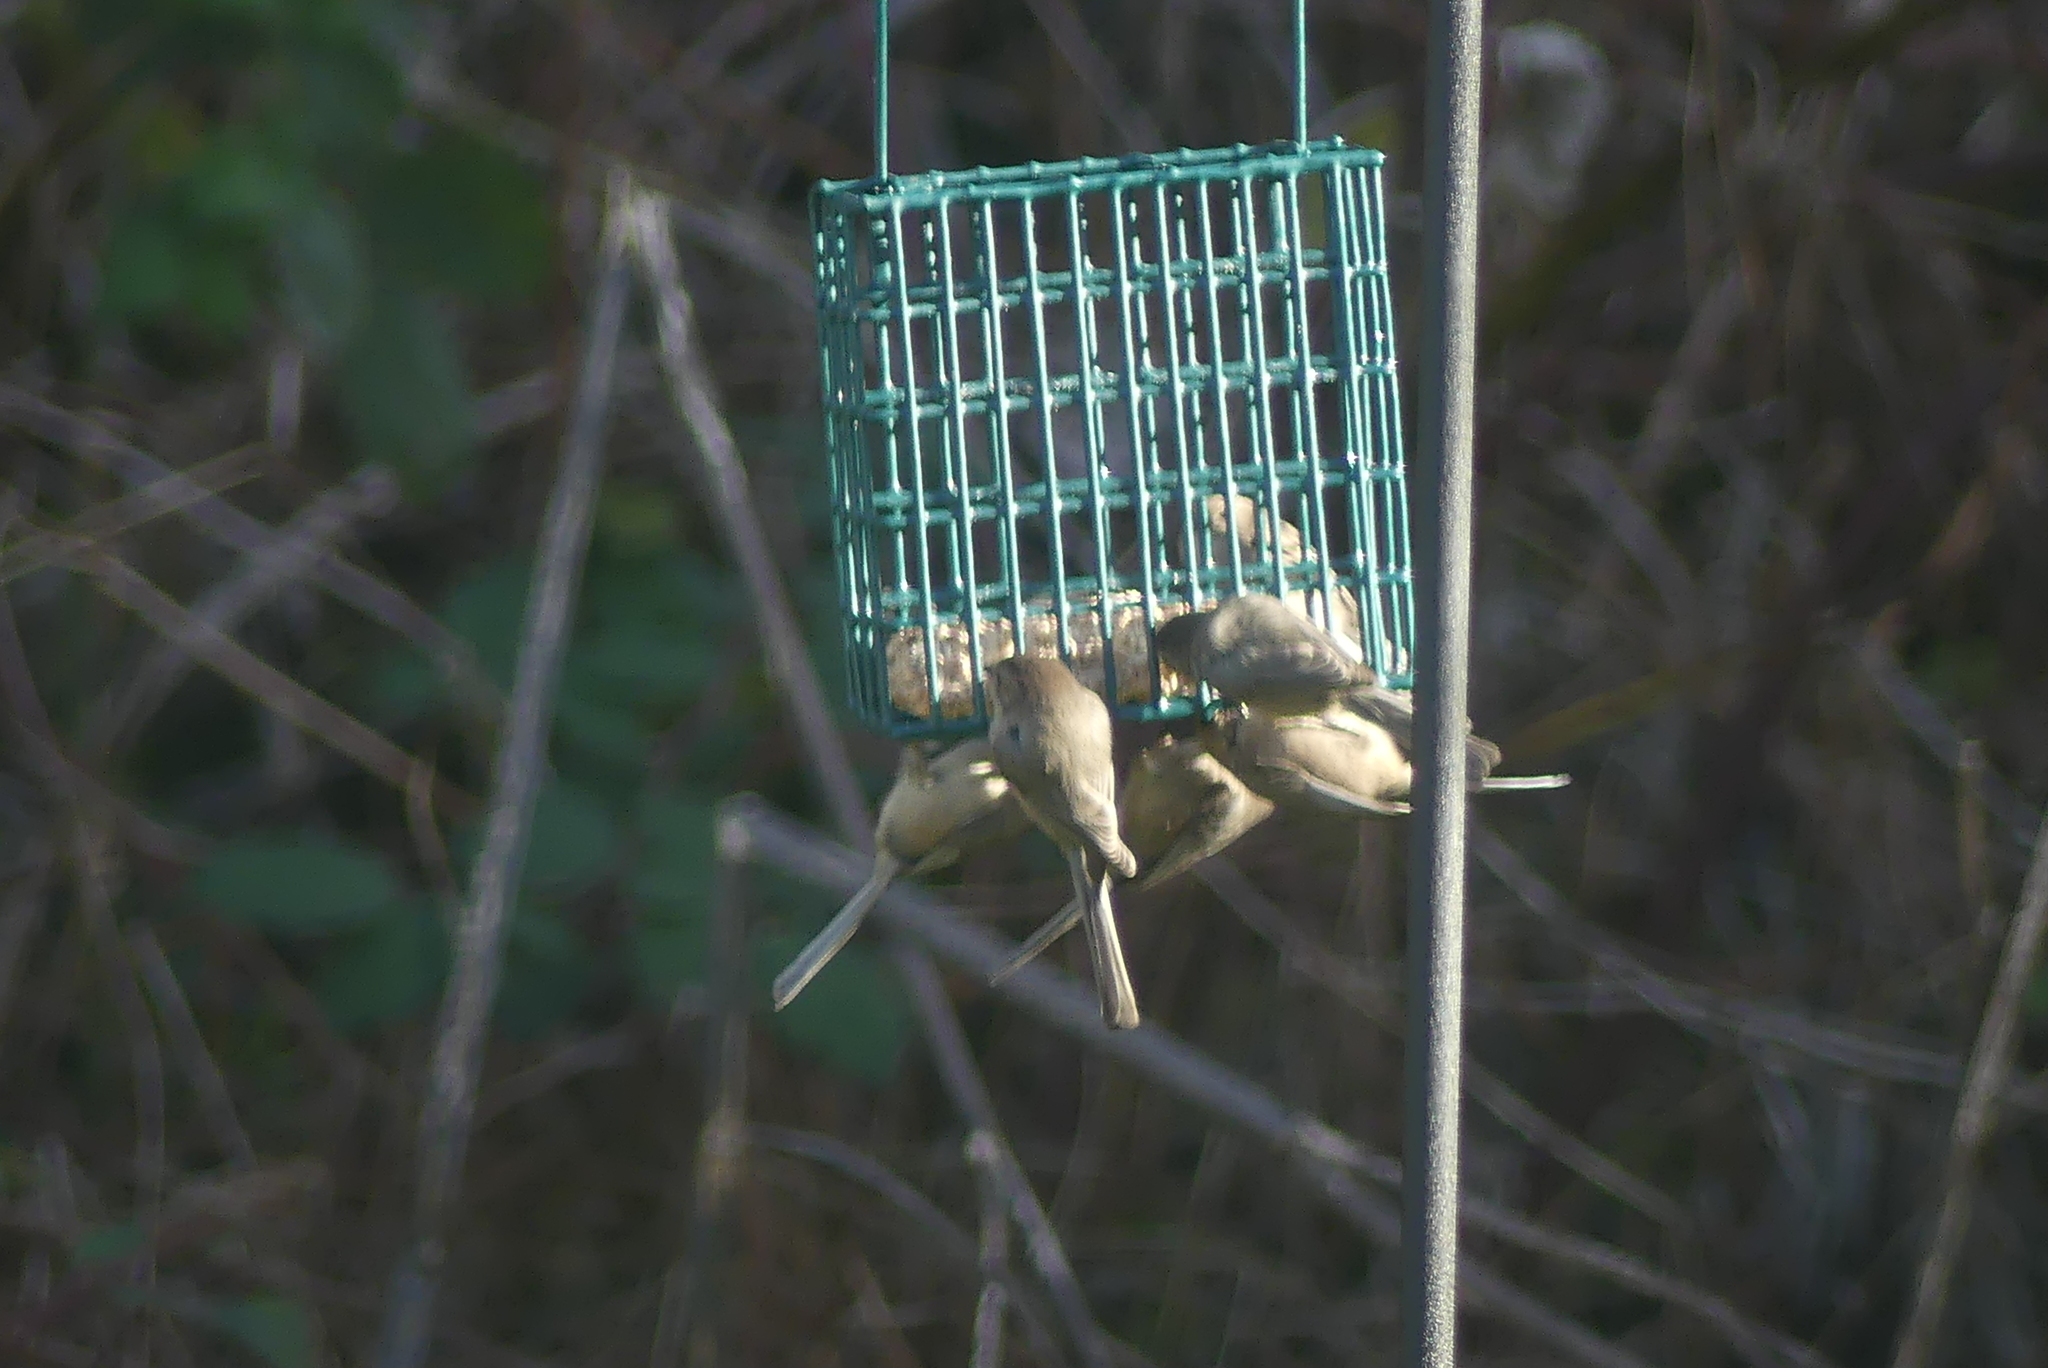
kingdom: Animalia
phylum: Chordata
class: Aves
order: Passeriformes
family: Aegithalidae
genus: Psaltriparus
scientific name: Psaltriparus minimus
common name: American bushtit
